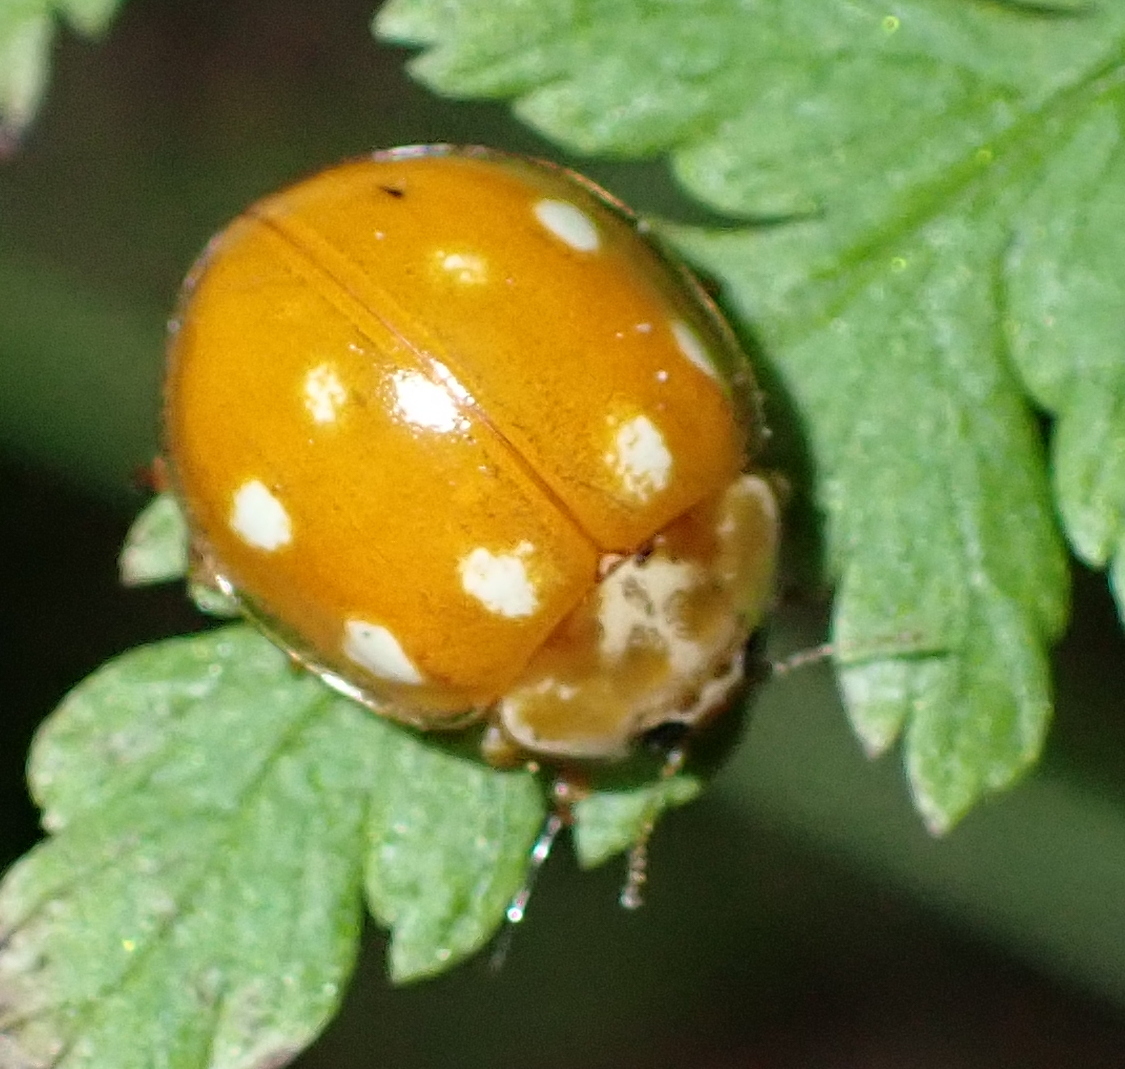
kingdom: Animalia
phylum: Arthropoda
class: Insecta
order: Coleoptera
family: Coccinellidae
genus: Calvia
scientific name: Calvia decemguttata
